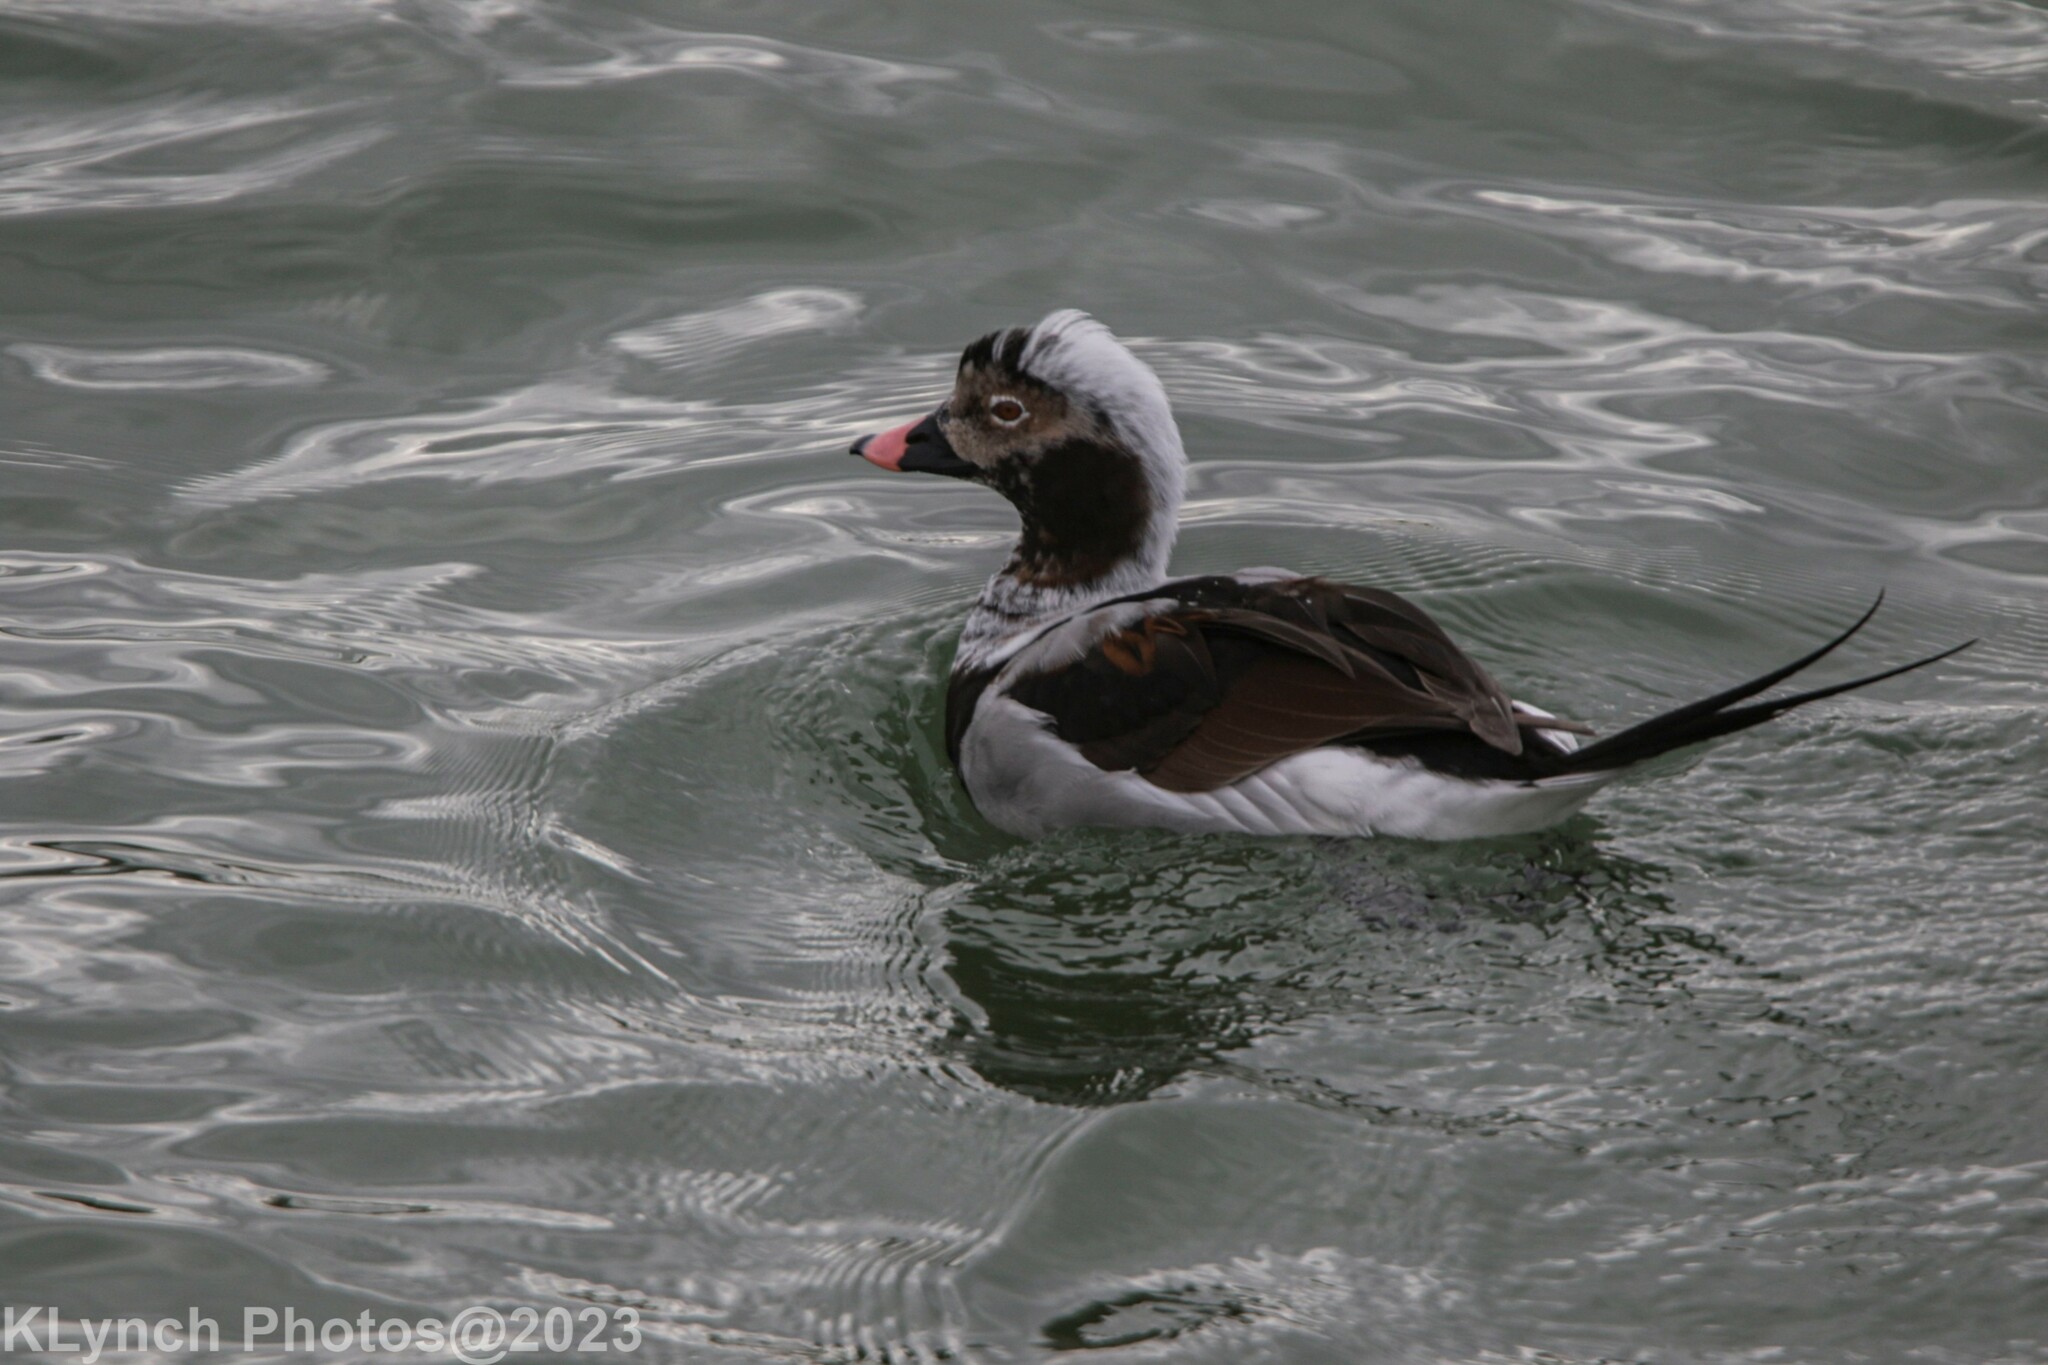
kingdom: Animalia
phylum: Chordata
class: Aves
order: Anseriformes
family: Anatidae
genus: Clangula
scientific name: Clangula hyemalis
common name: Long-tailed duck
